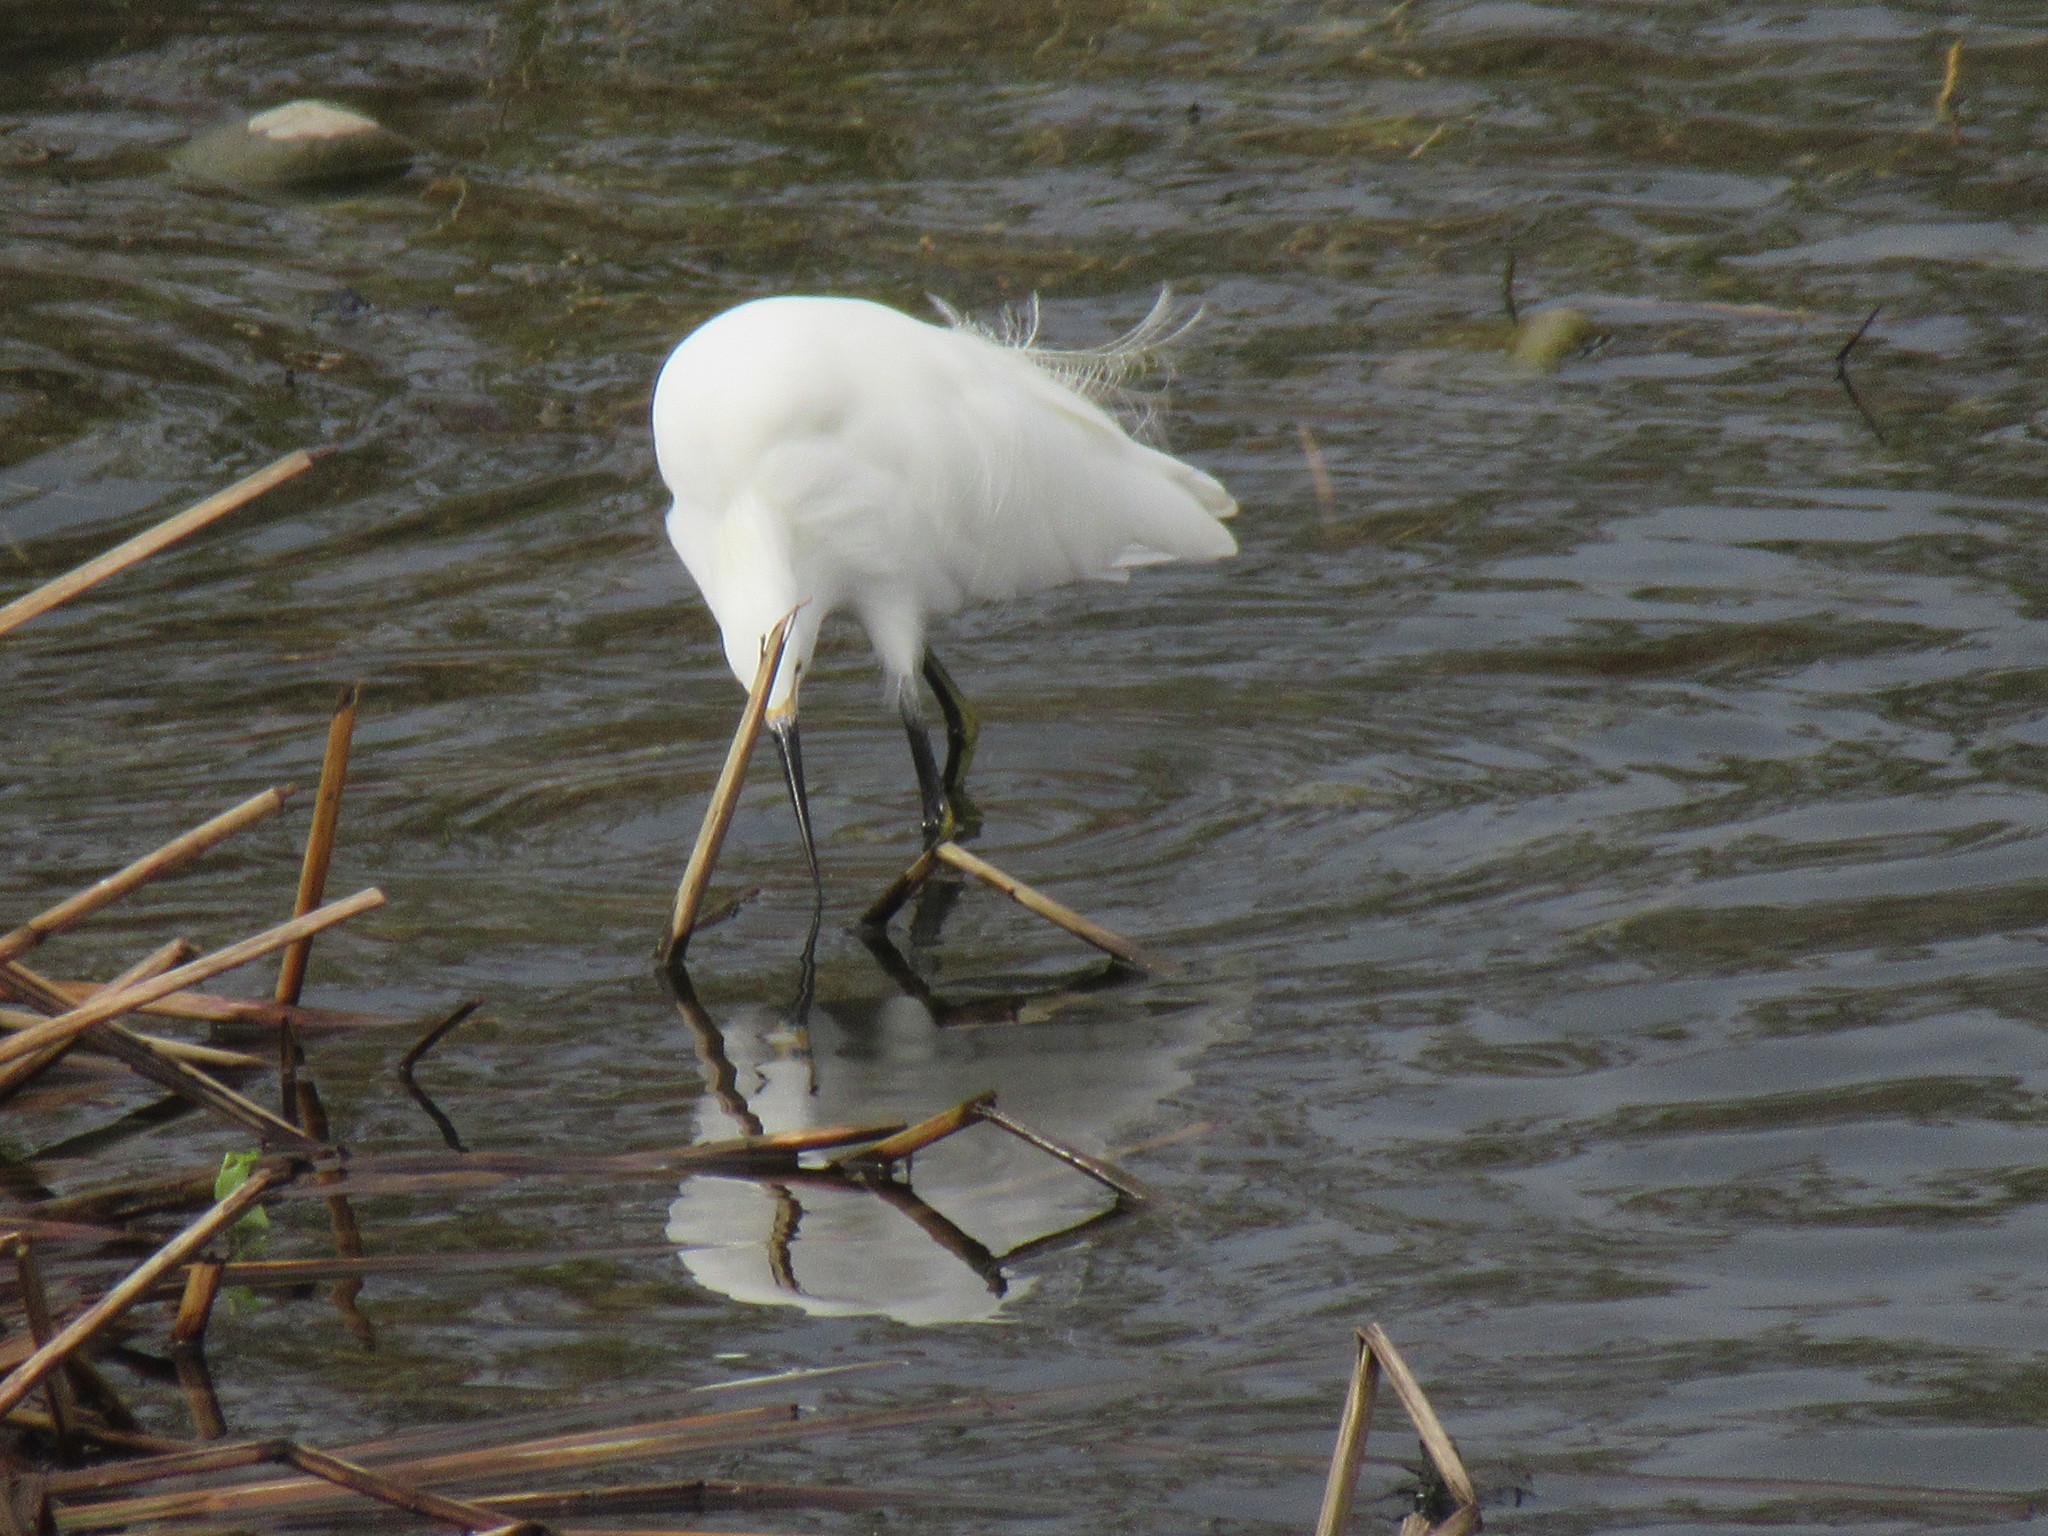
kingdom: Animalia
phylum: Chordata
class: Aves
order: Pelecaniformes
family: Ardeidae
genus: Egretta
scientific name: Egretta thula
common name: Snowy egret
